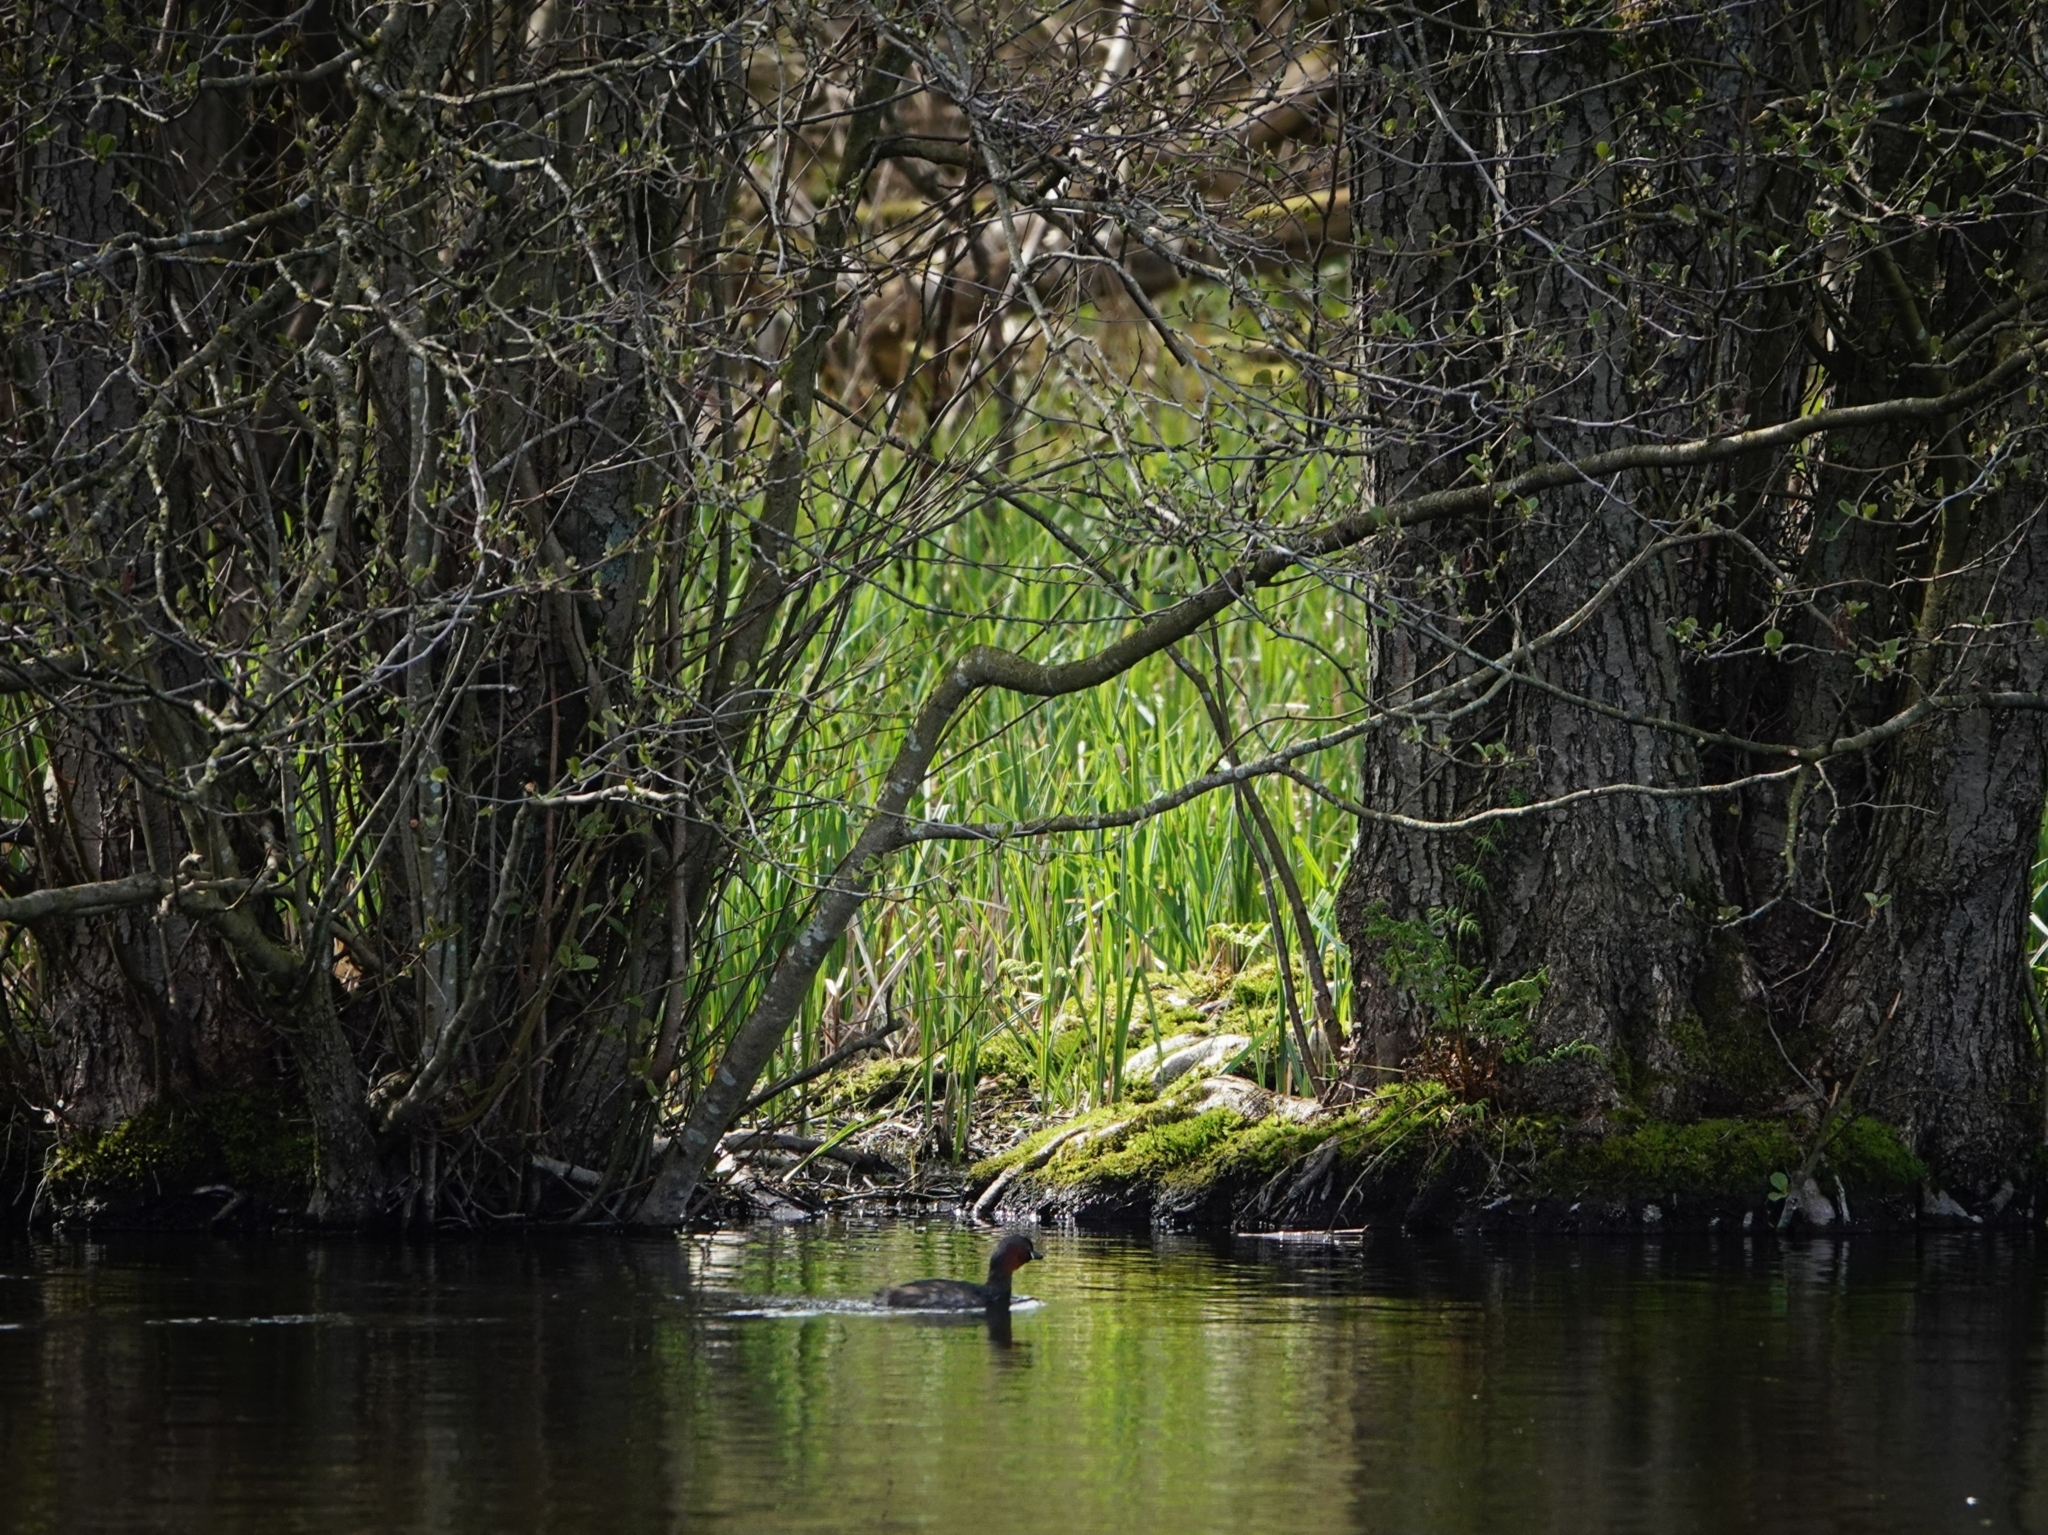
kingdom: Animalia
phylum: Chordata
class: Aves
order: Podicipediformes
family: Podicipedidae
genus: Tachybaptus
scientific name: Tachybaptus ruficollis
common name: Little grebe
